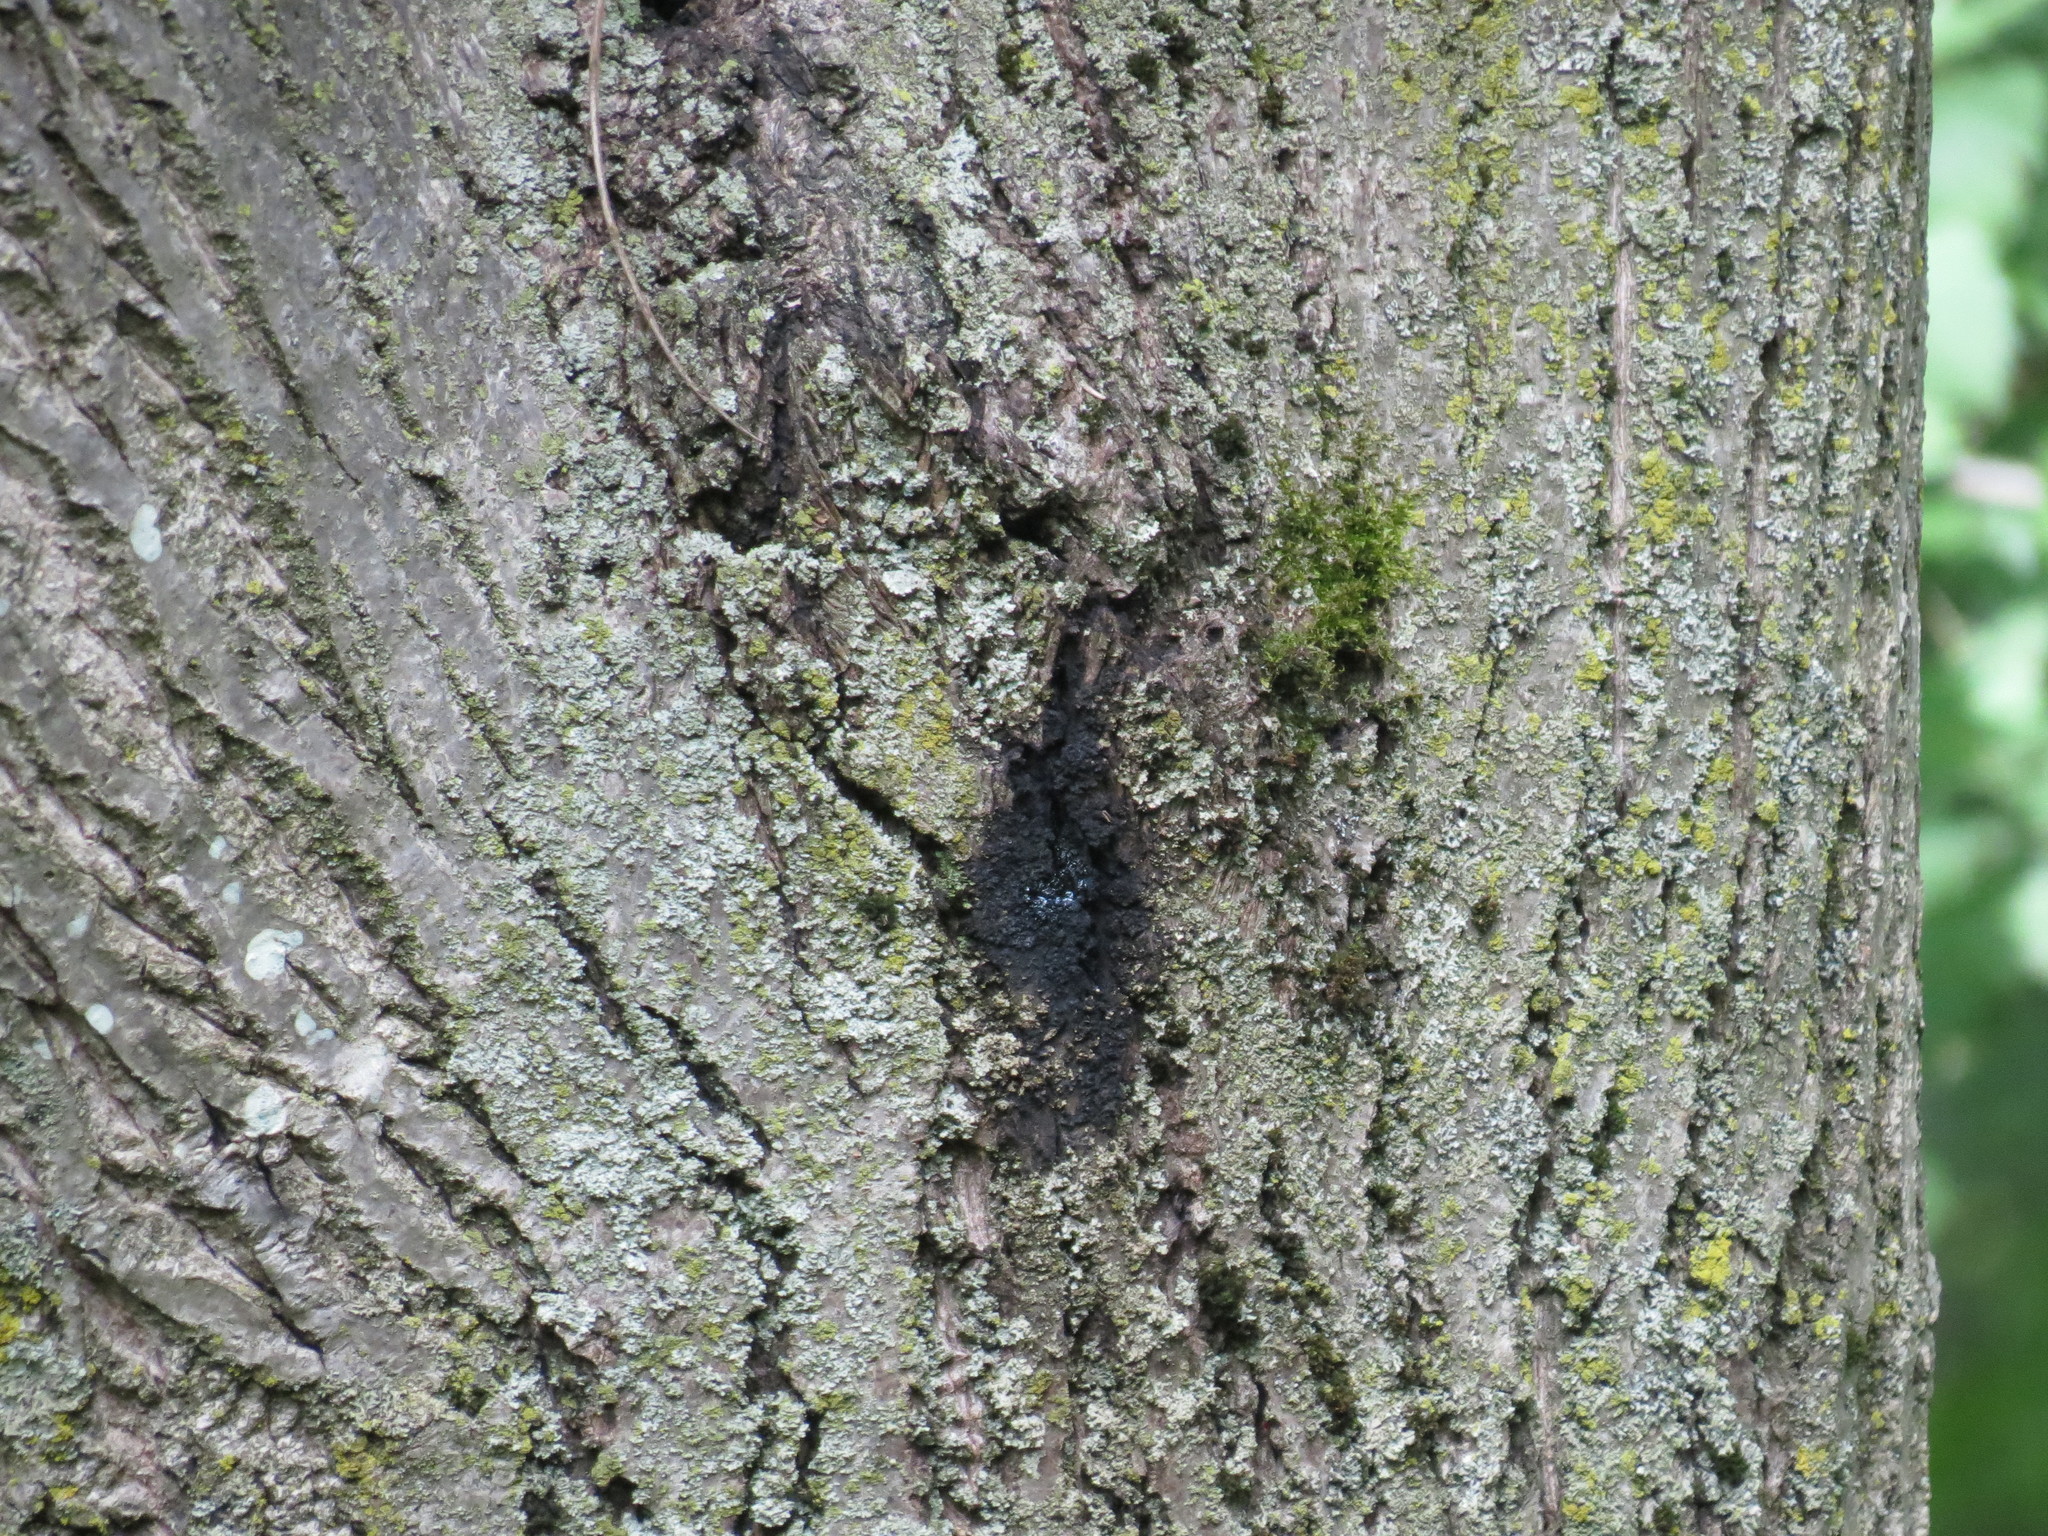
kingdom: Fungi
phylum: Ascomycota
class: Sordariomycetes
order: Diaporthales
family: Gnomoniaceae
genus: Ophiognomonia
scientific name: Ophiognomonia clavigignenti-juglandacearum
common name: Butternut canker fungus
